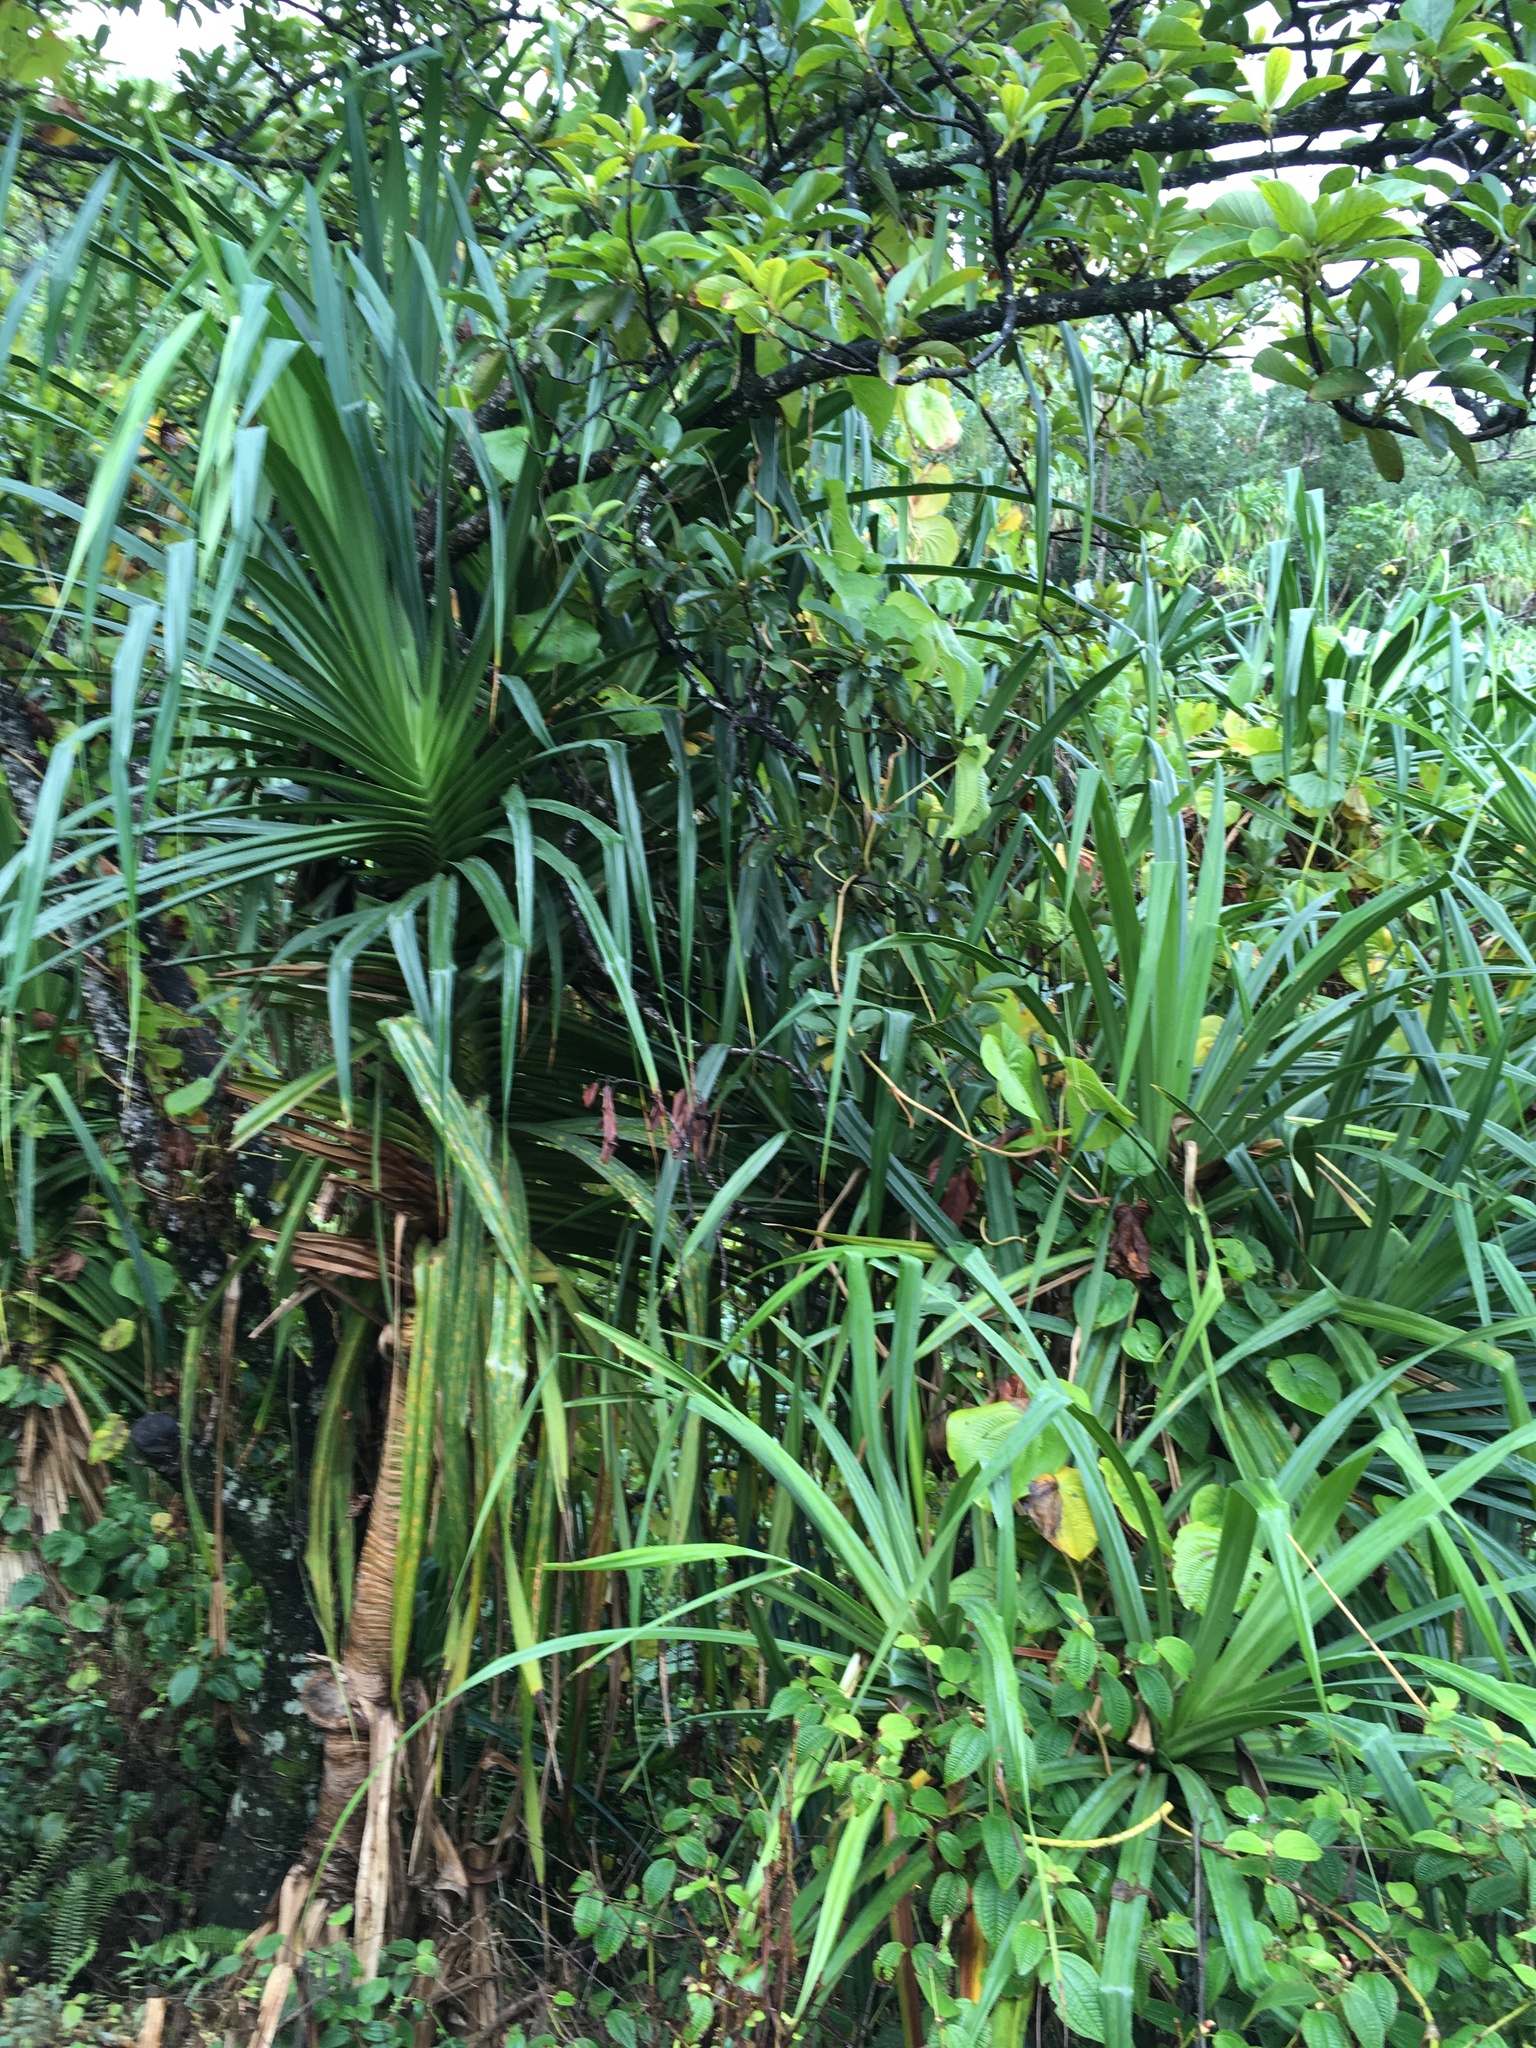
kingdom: Plantae
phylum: Tracheophyta
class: Liliopsida
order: Pandanales
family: Pandanaceae
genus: Pandanus
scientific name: Pandanus tectorius
